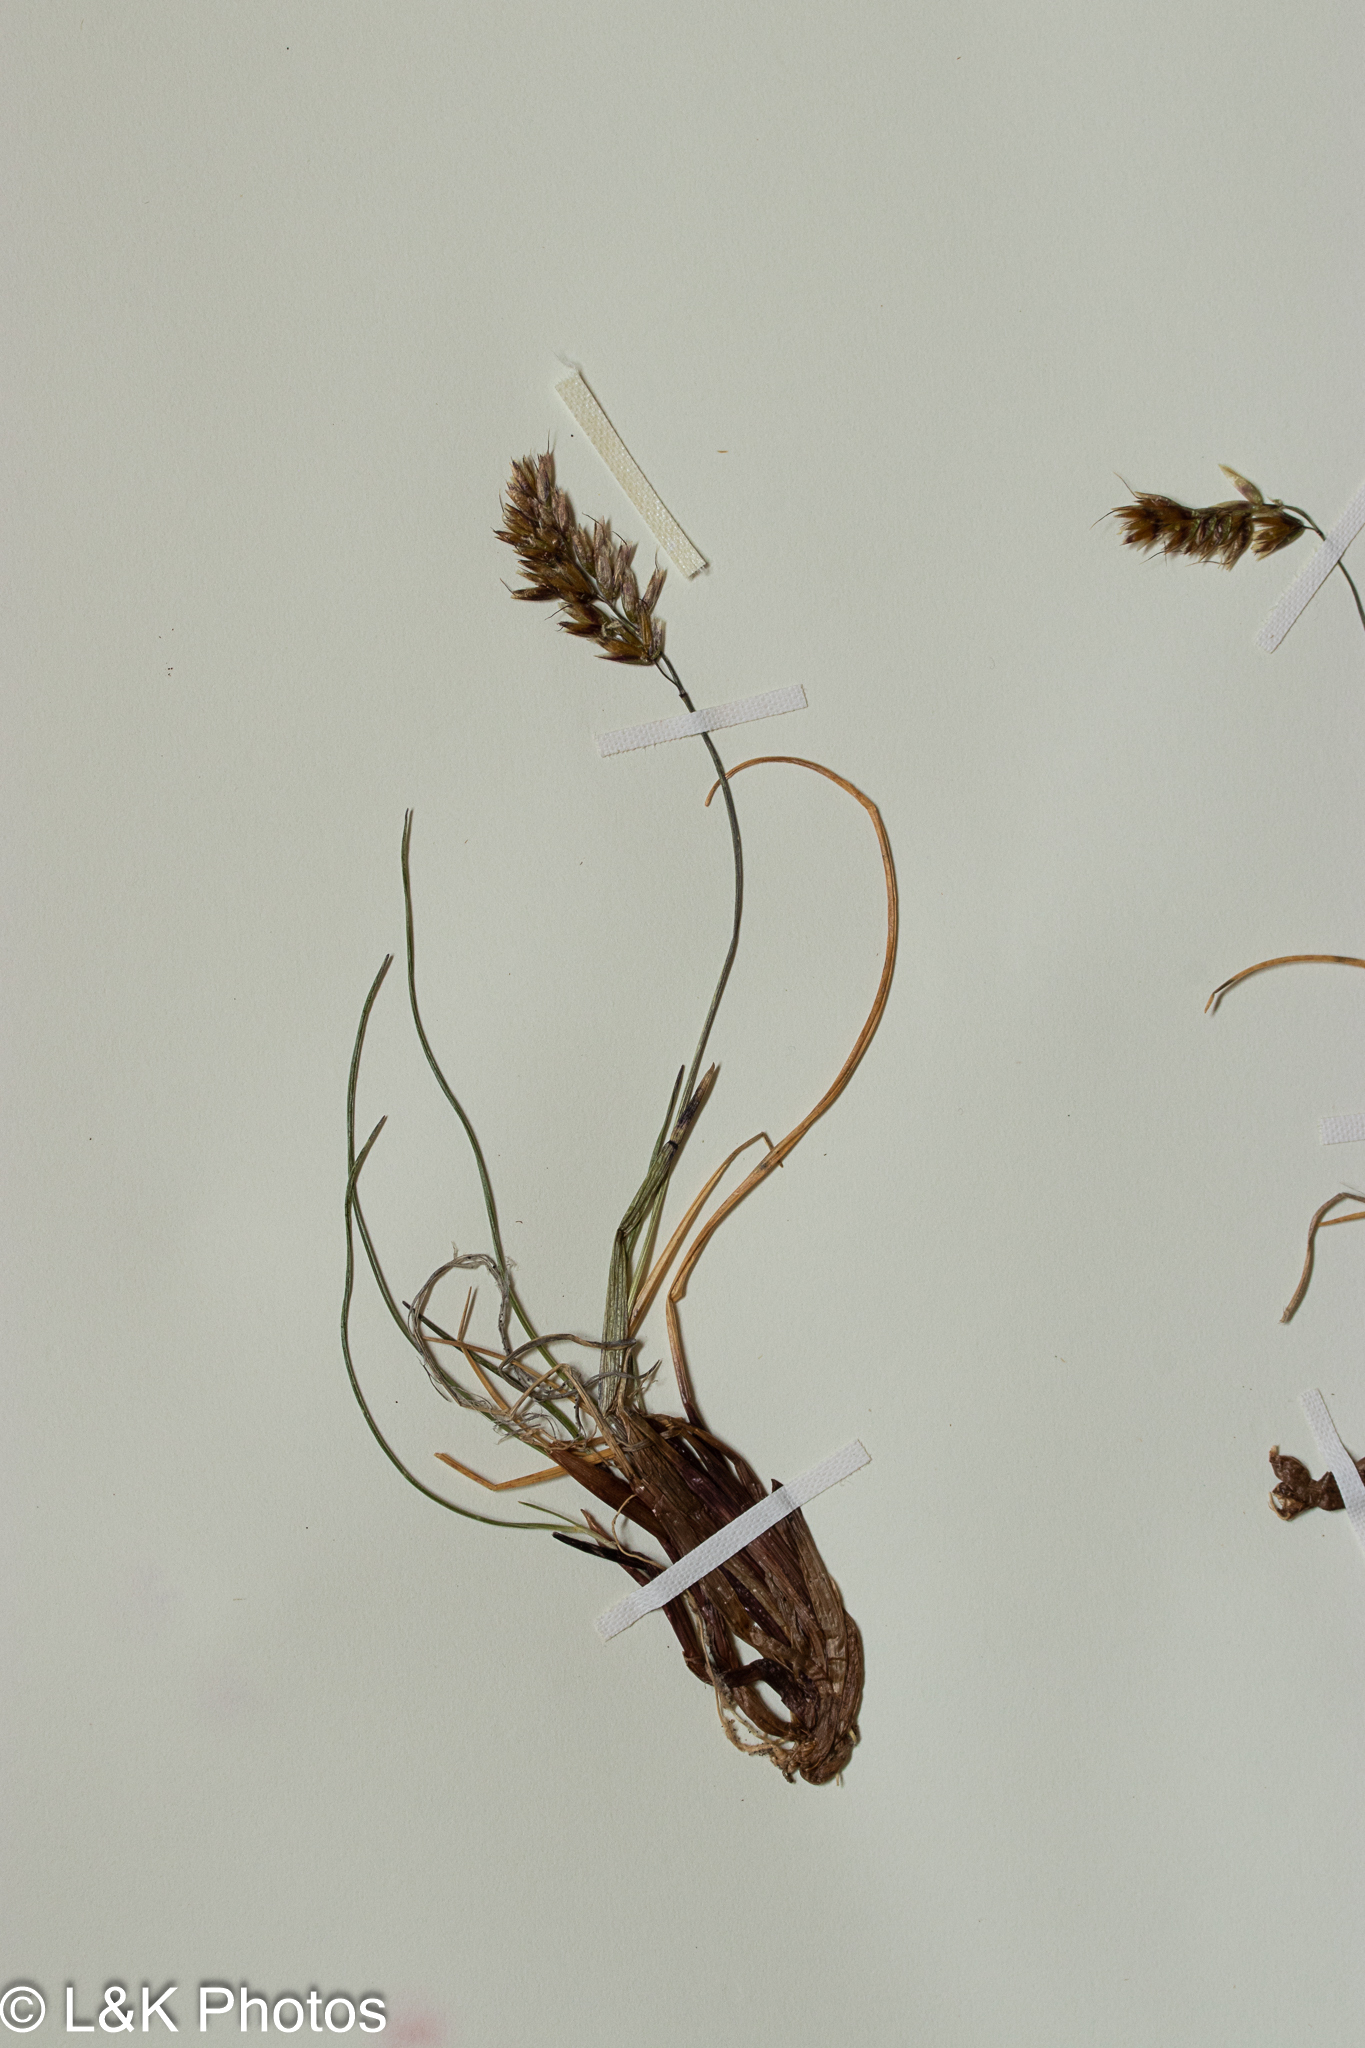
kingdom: Plantae
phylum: Tracheophyta
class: Liliopsida
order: Poales
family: Poaceae
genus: Anthoxanthum
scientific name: Anthoxanthum monticola
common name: Alpine sweetgrass
